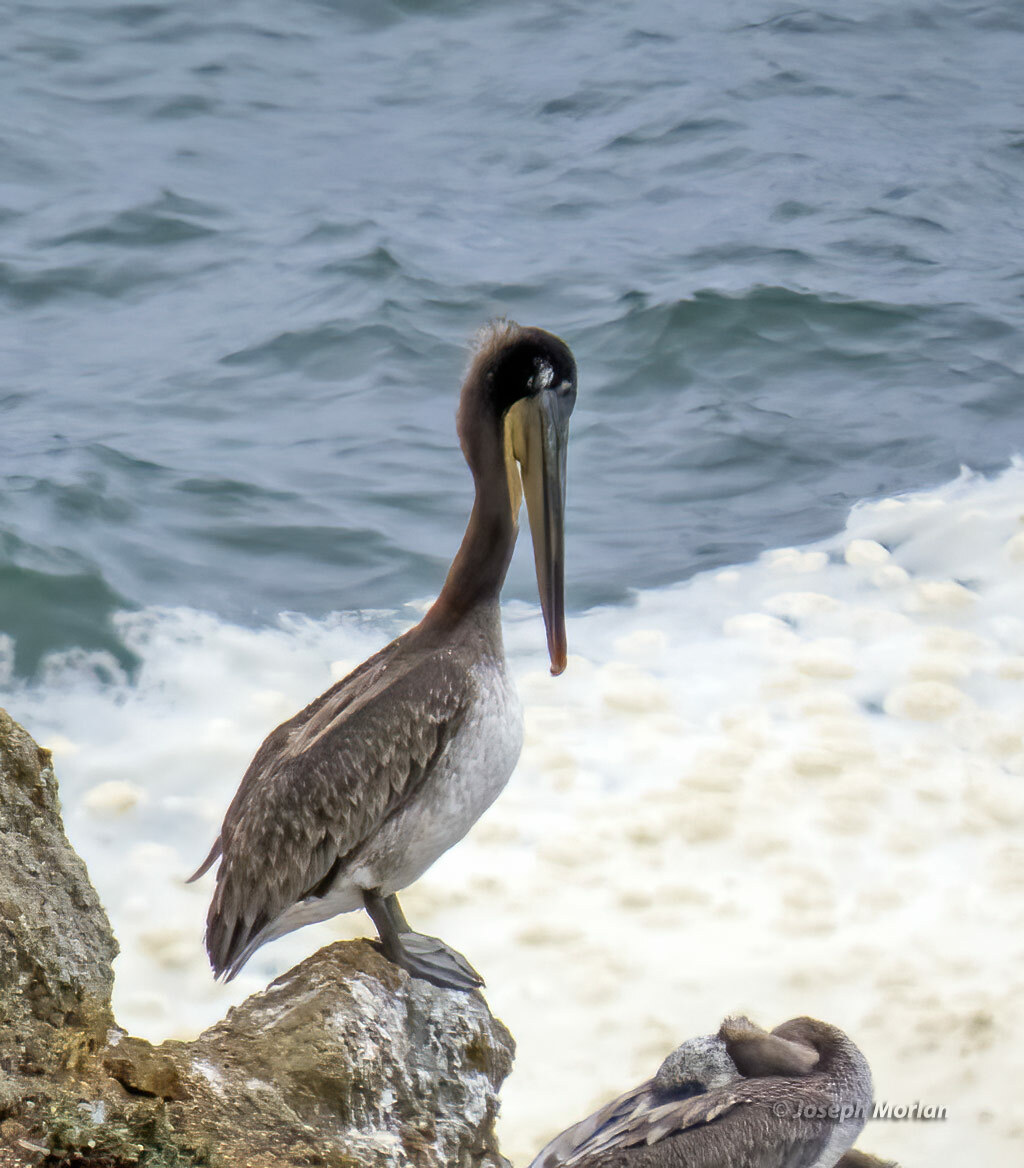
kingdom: Animalia
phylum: Chordata
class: Aves
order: Pelecaniformes
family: Pelecanidae
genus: Pelecanus
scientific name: Pelecanus occidentalis
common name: Brown pelican
